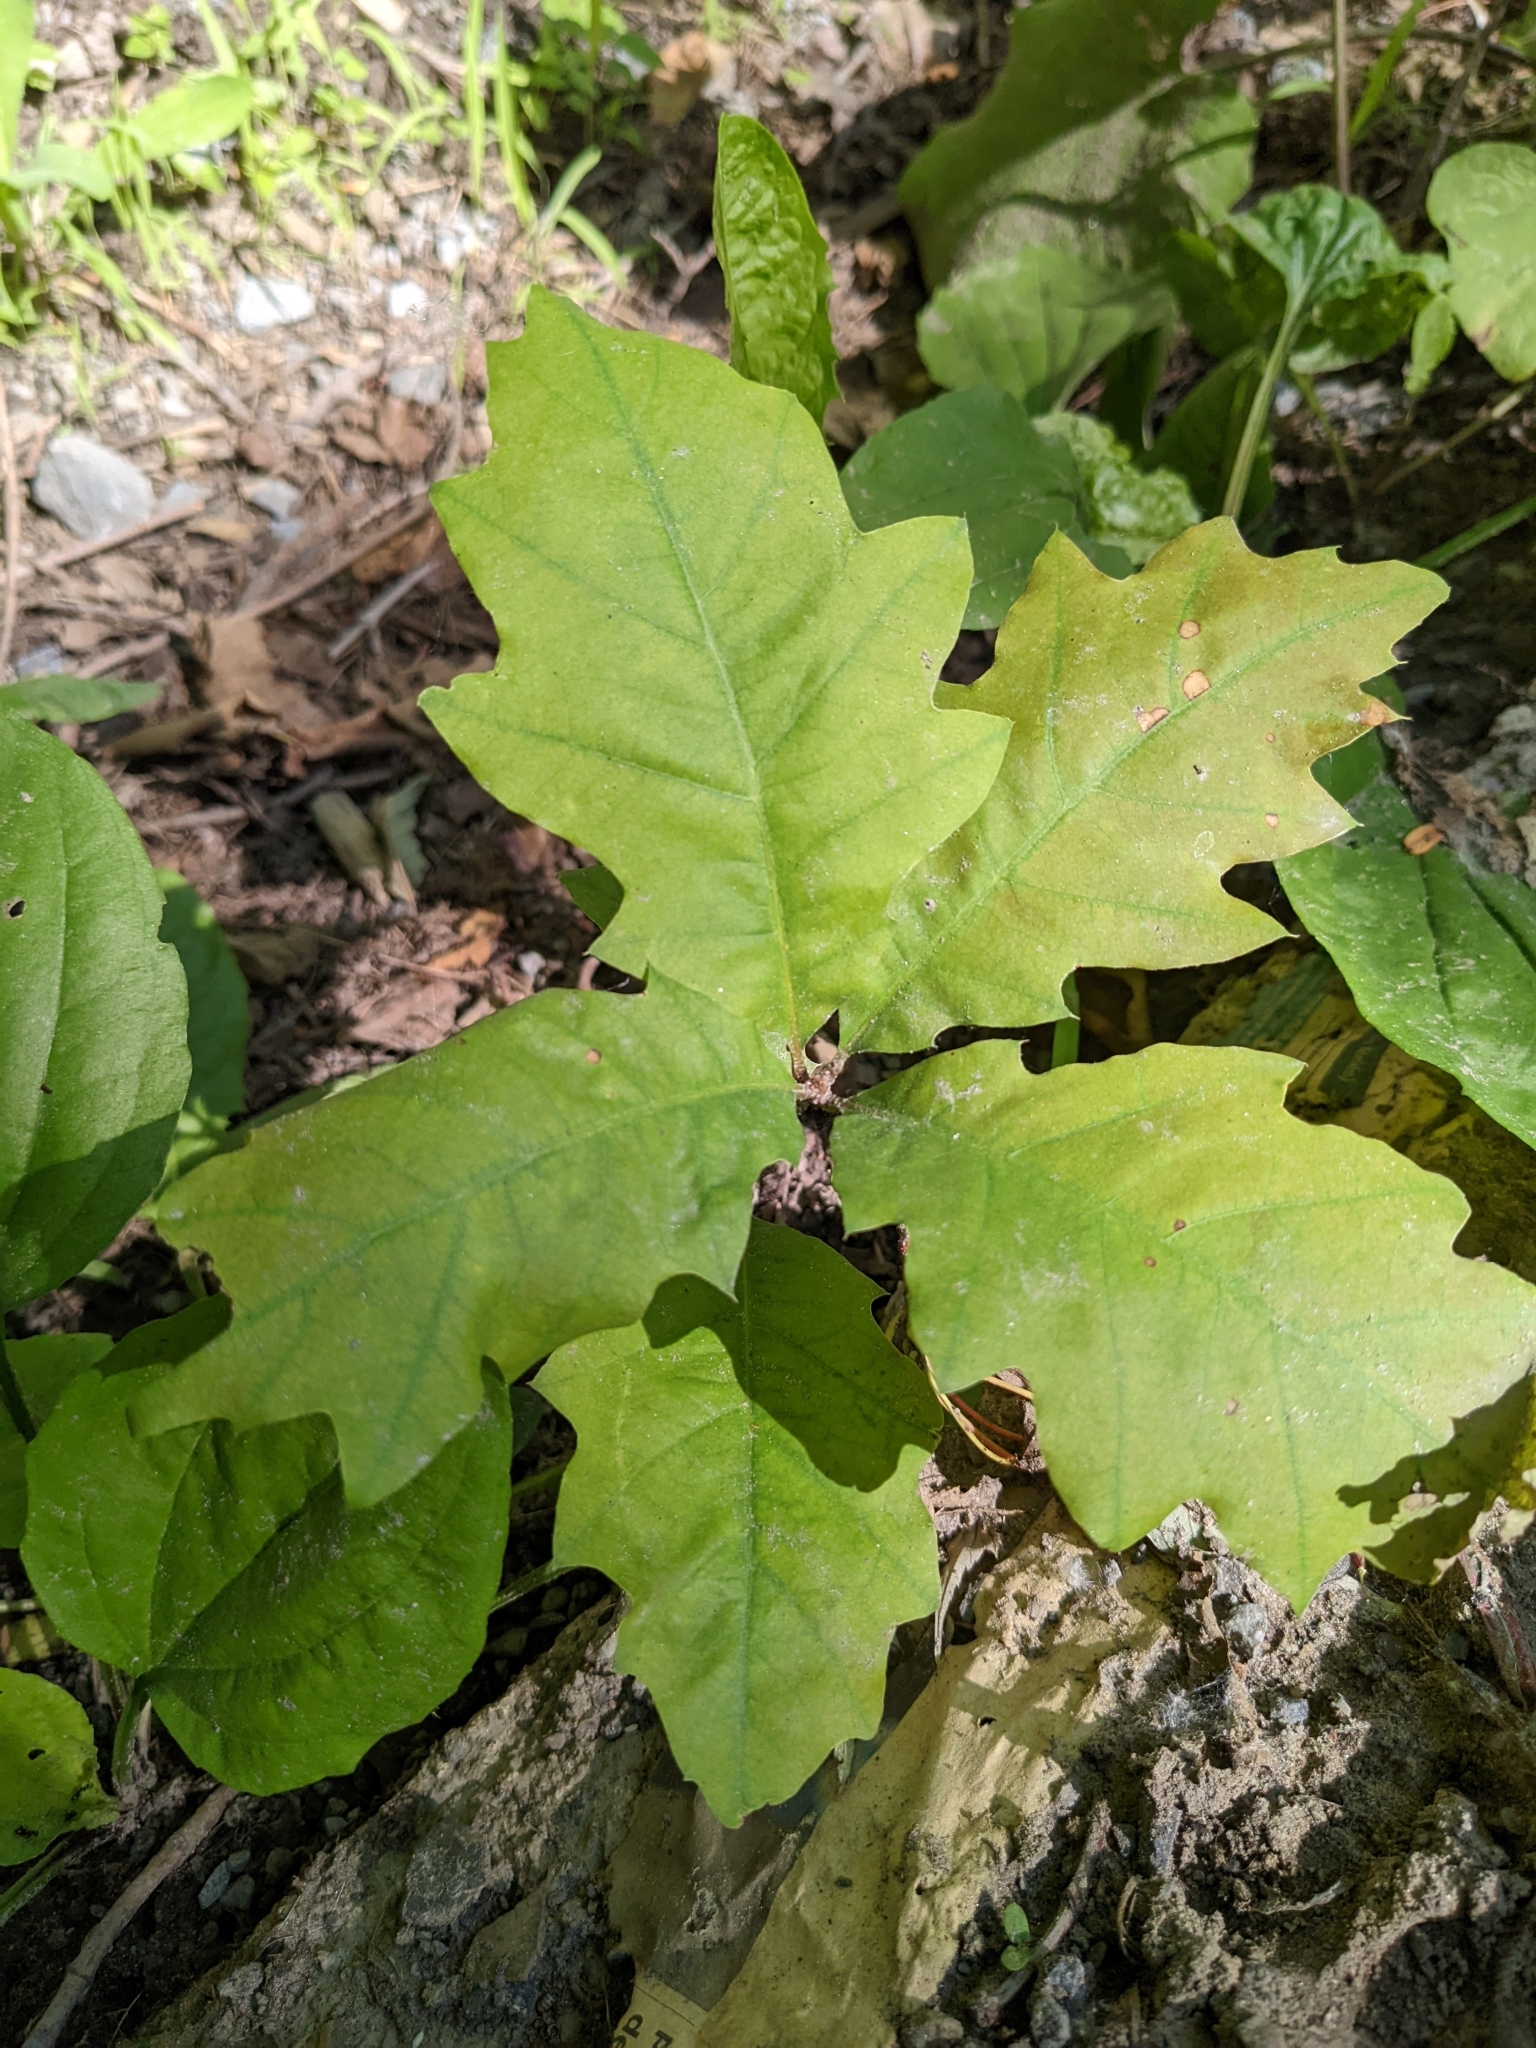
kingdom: Plantae
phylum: Tracheophyta
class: Magnoliopsida
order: Fagales
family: Fagaceae
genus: Quercus
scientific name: Quercus rubra
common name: Red oak
